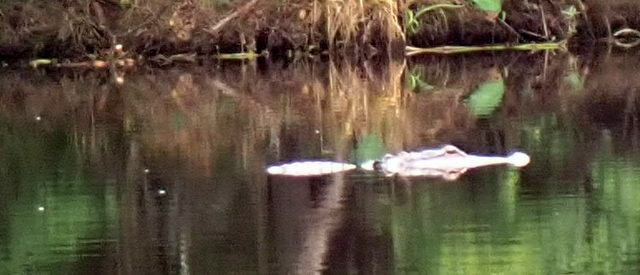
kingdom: Animalia
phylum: Chordata
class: Crocodylia
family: Alligatoridae
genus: Alligator
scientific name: Alligator mississippiensis
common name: American alligator
